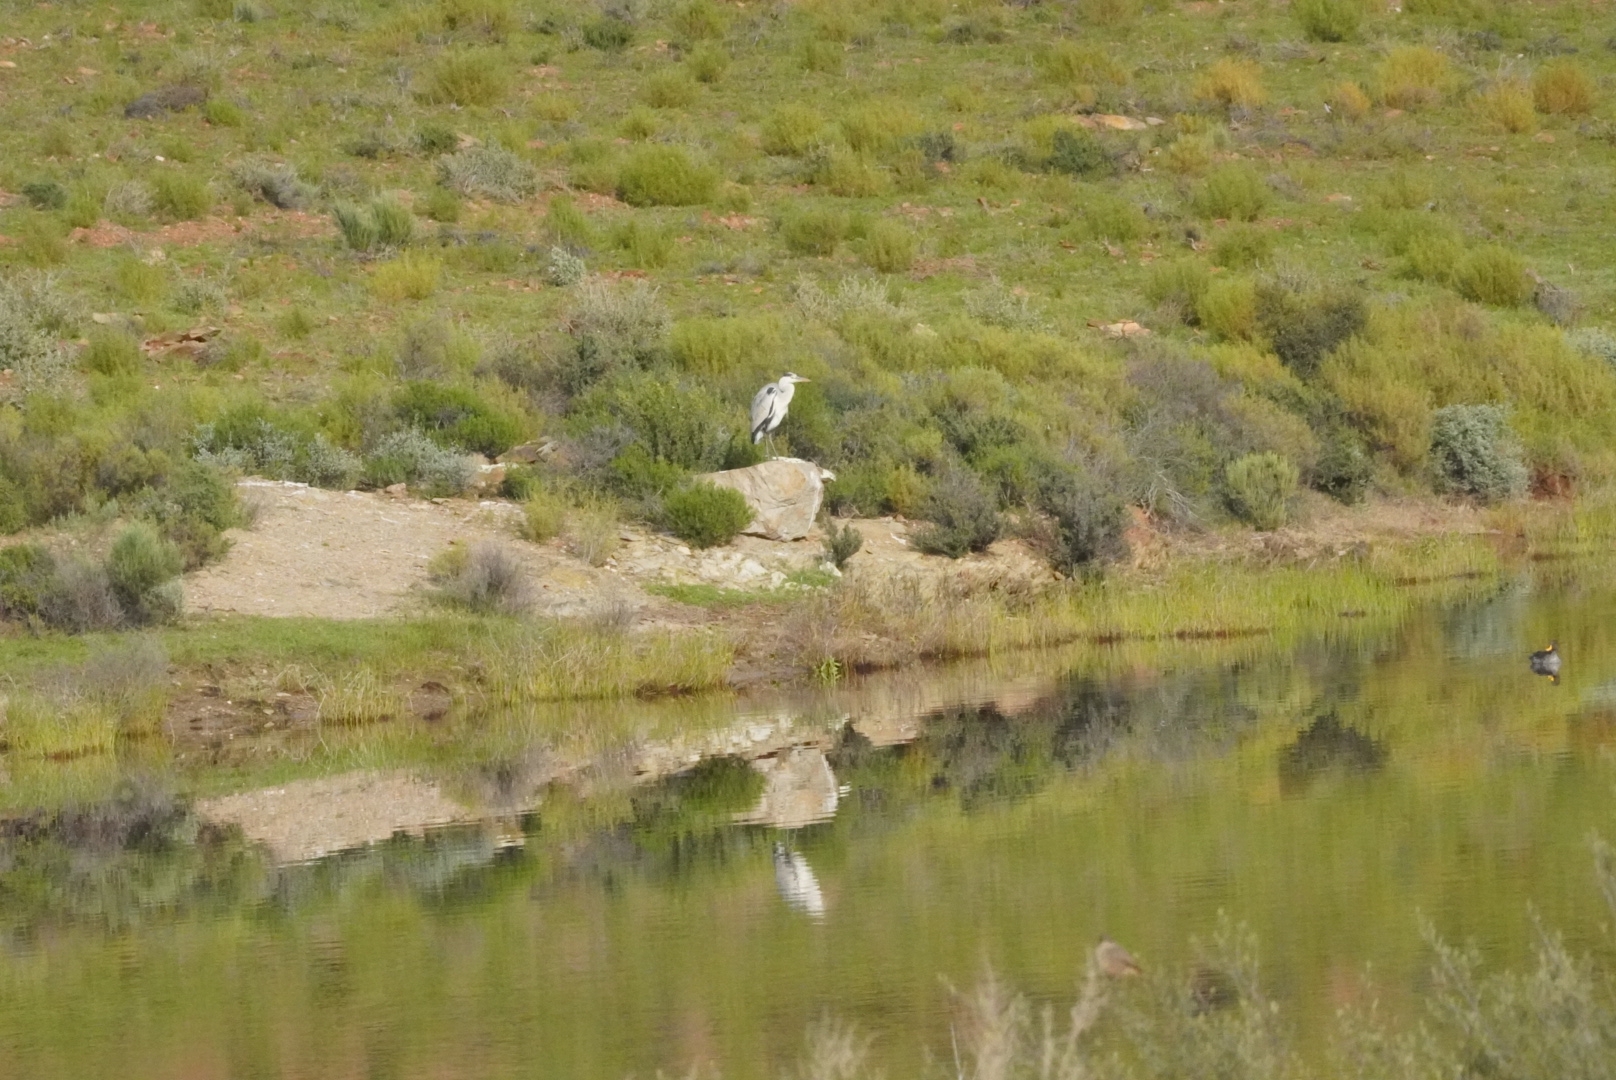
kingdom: Animalia
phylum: Chordata
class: Aves
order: Pelecaniformes
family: Ardeidae
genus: Ardea
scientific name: Ardea cinerea
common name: Grey heron
